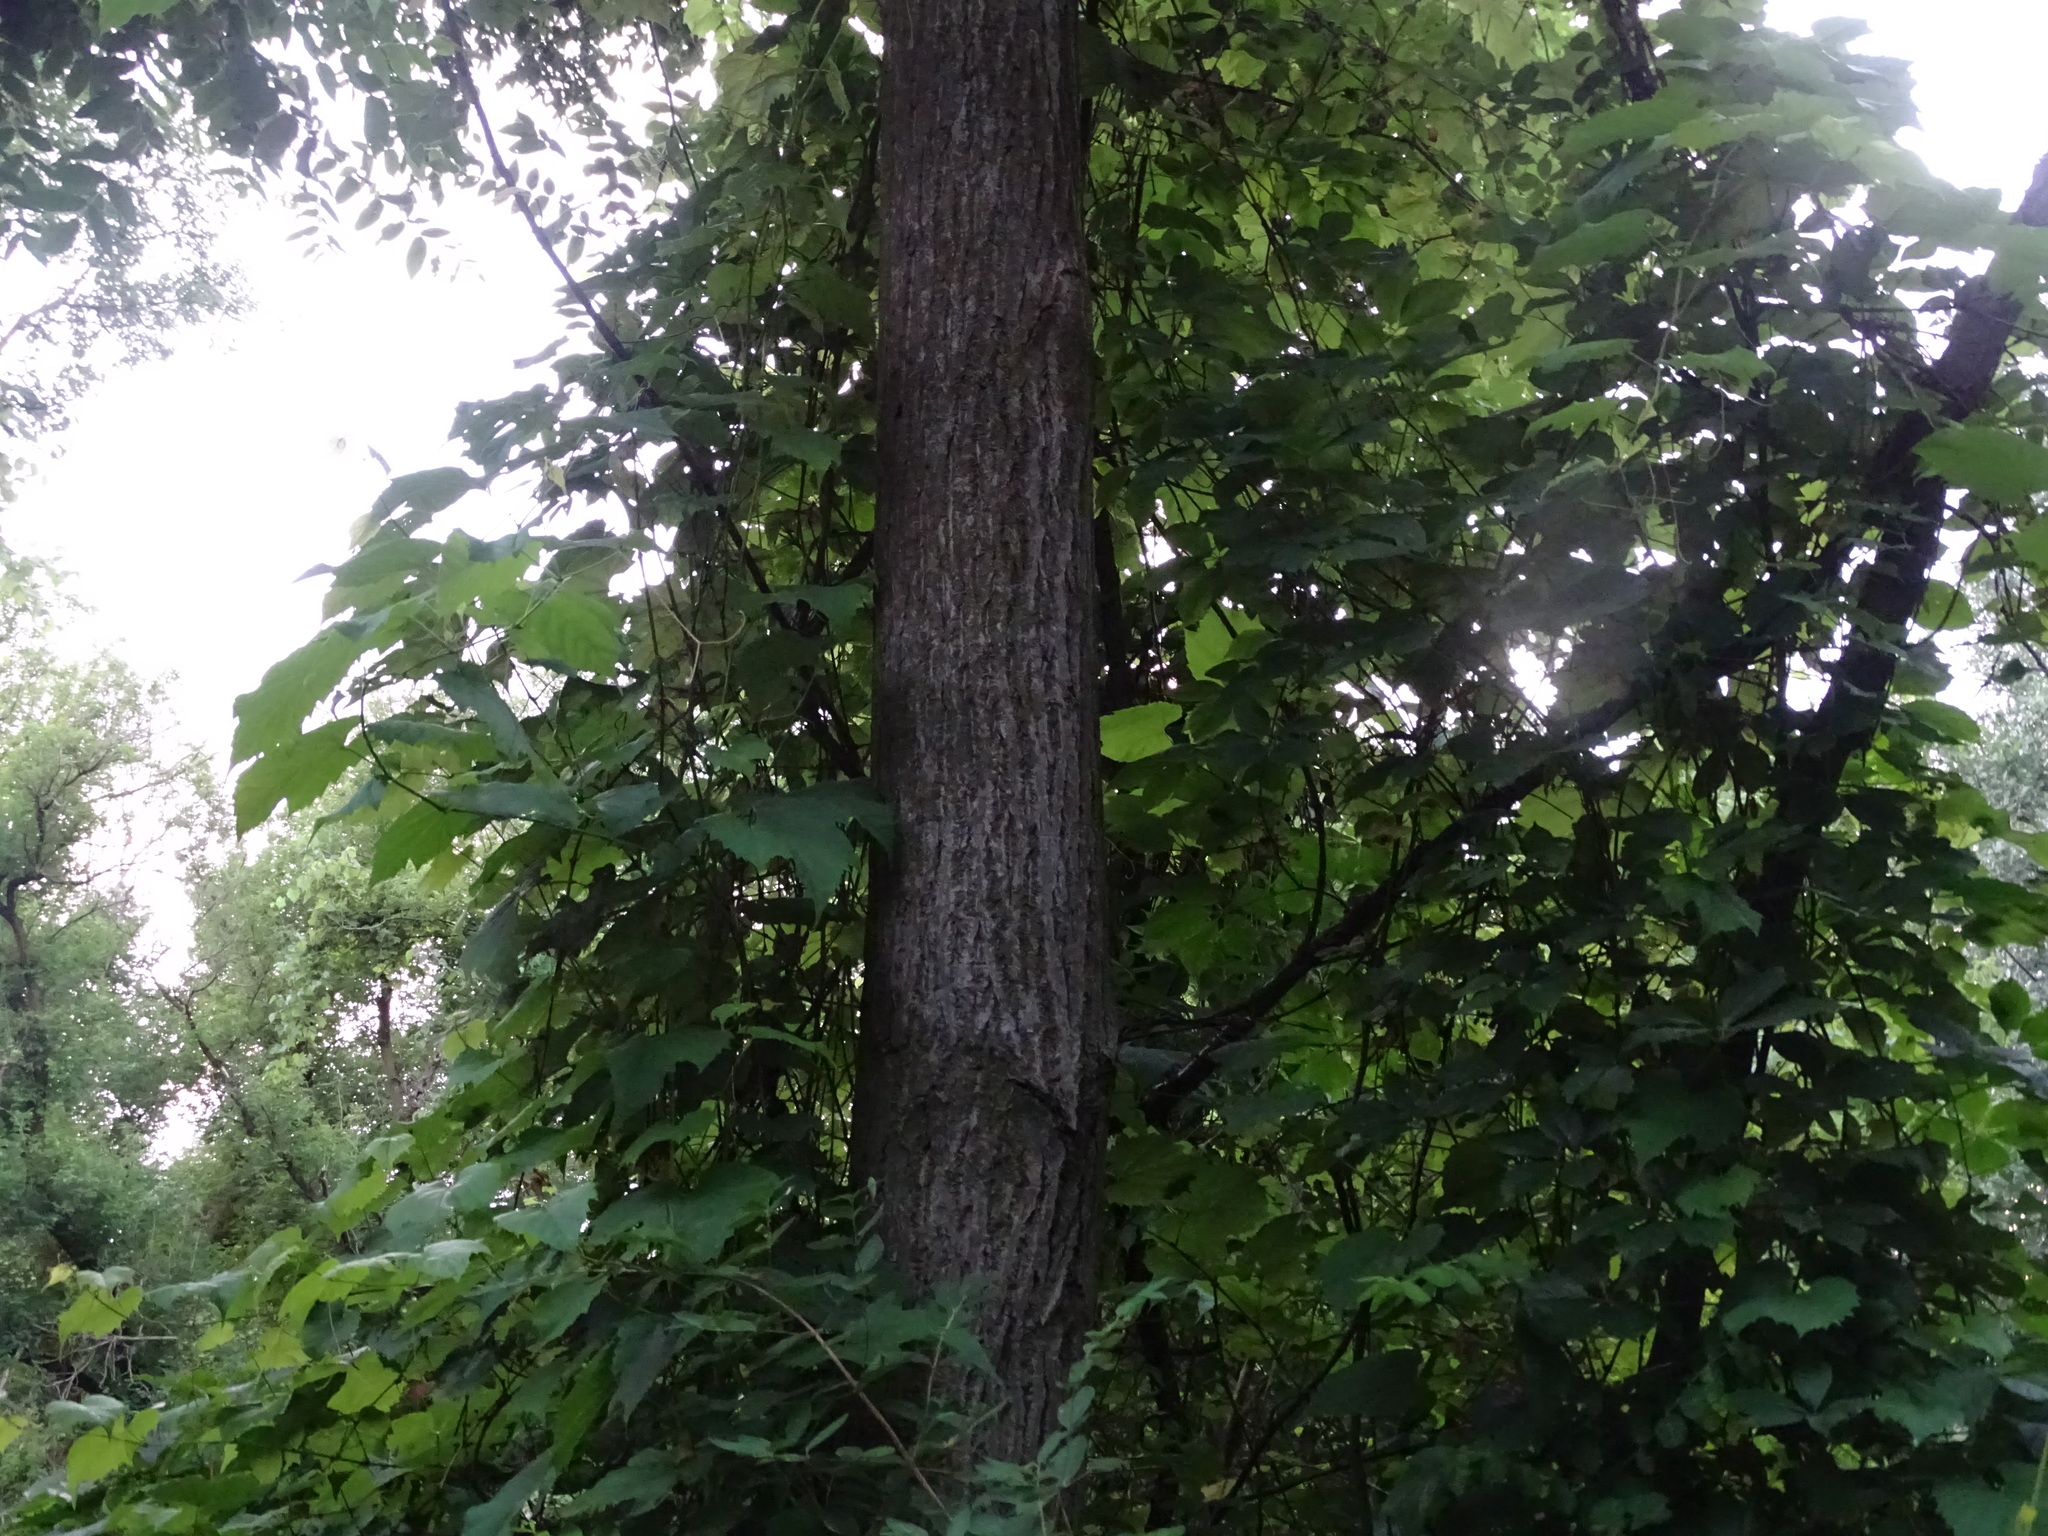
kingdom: Plantae
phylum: Tracheophyta
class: Magnoliopsida
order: Fagales
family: Juglandaceae
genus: Juglans
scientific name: Juglans cinerea
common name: Butternut
